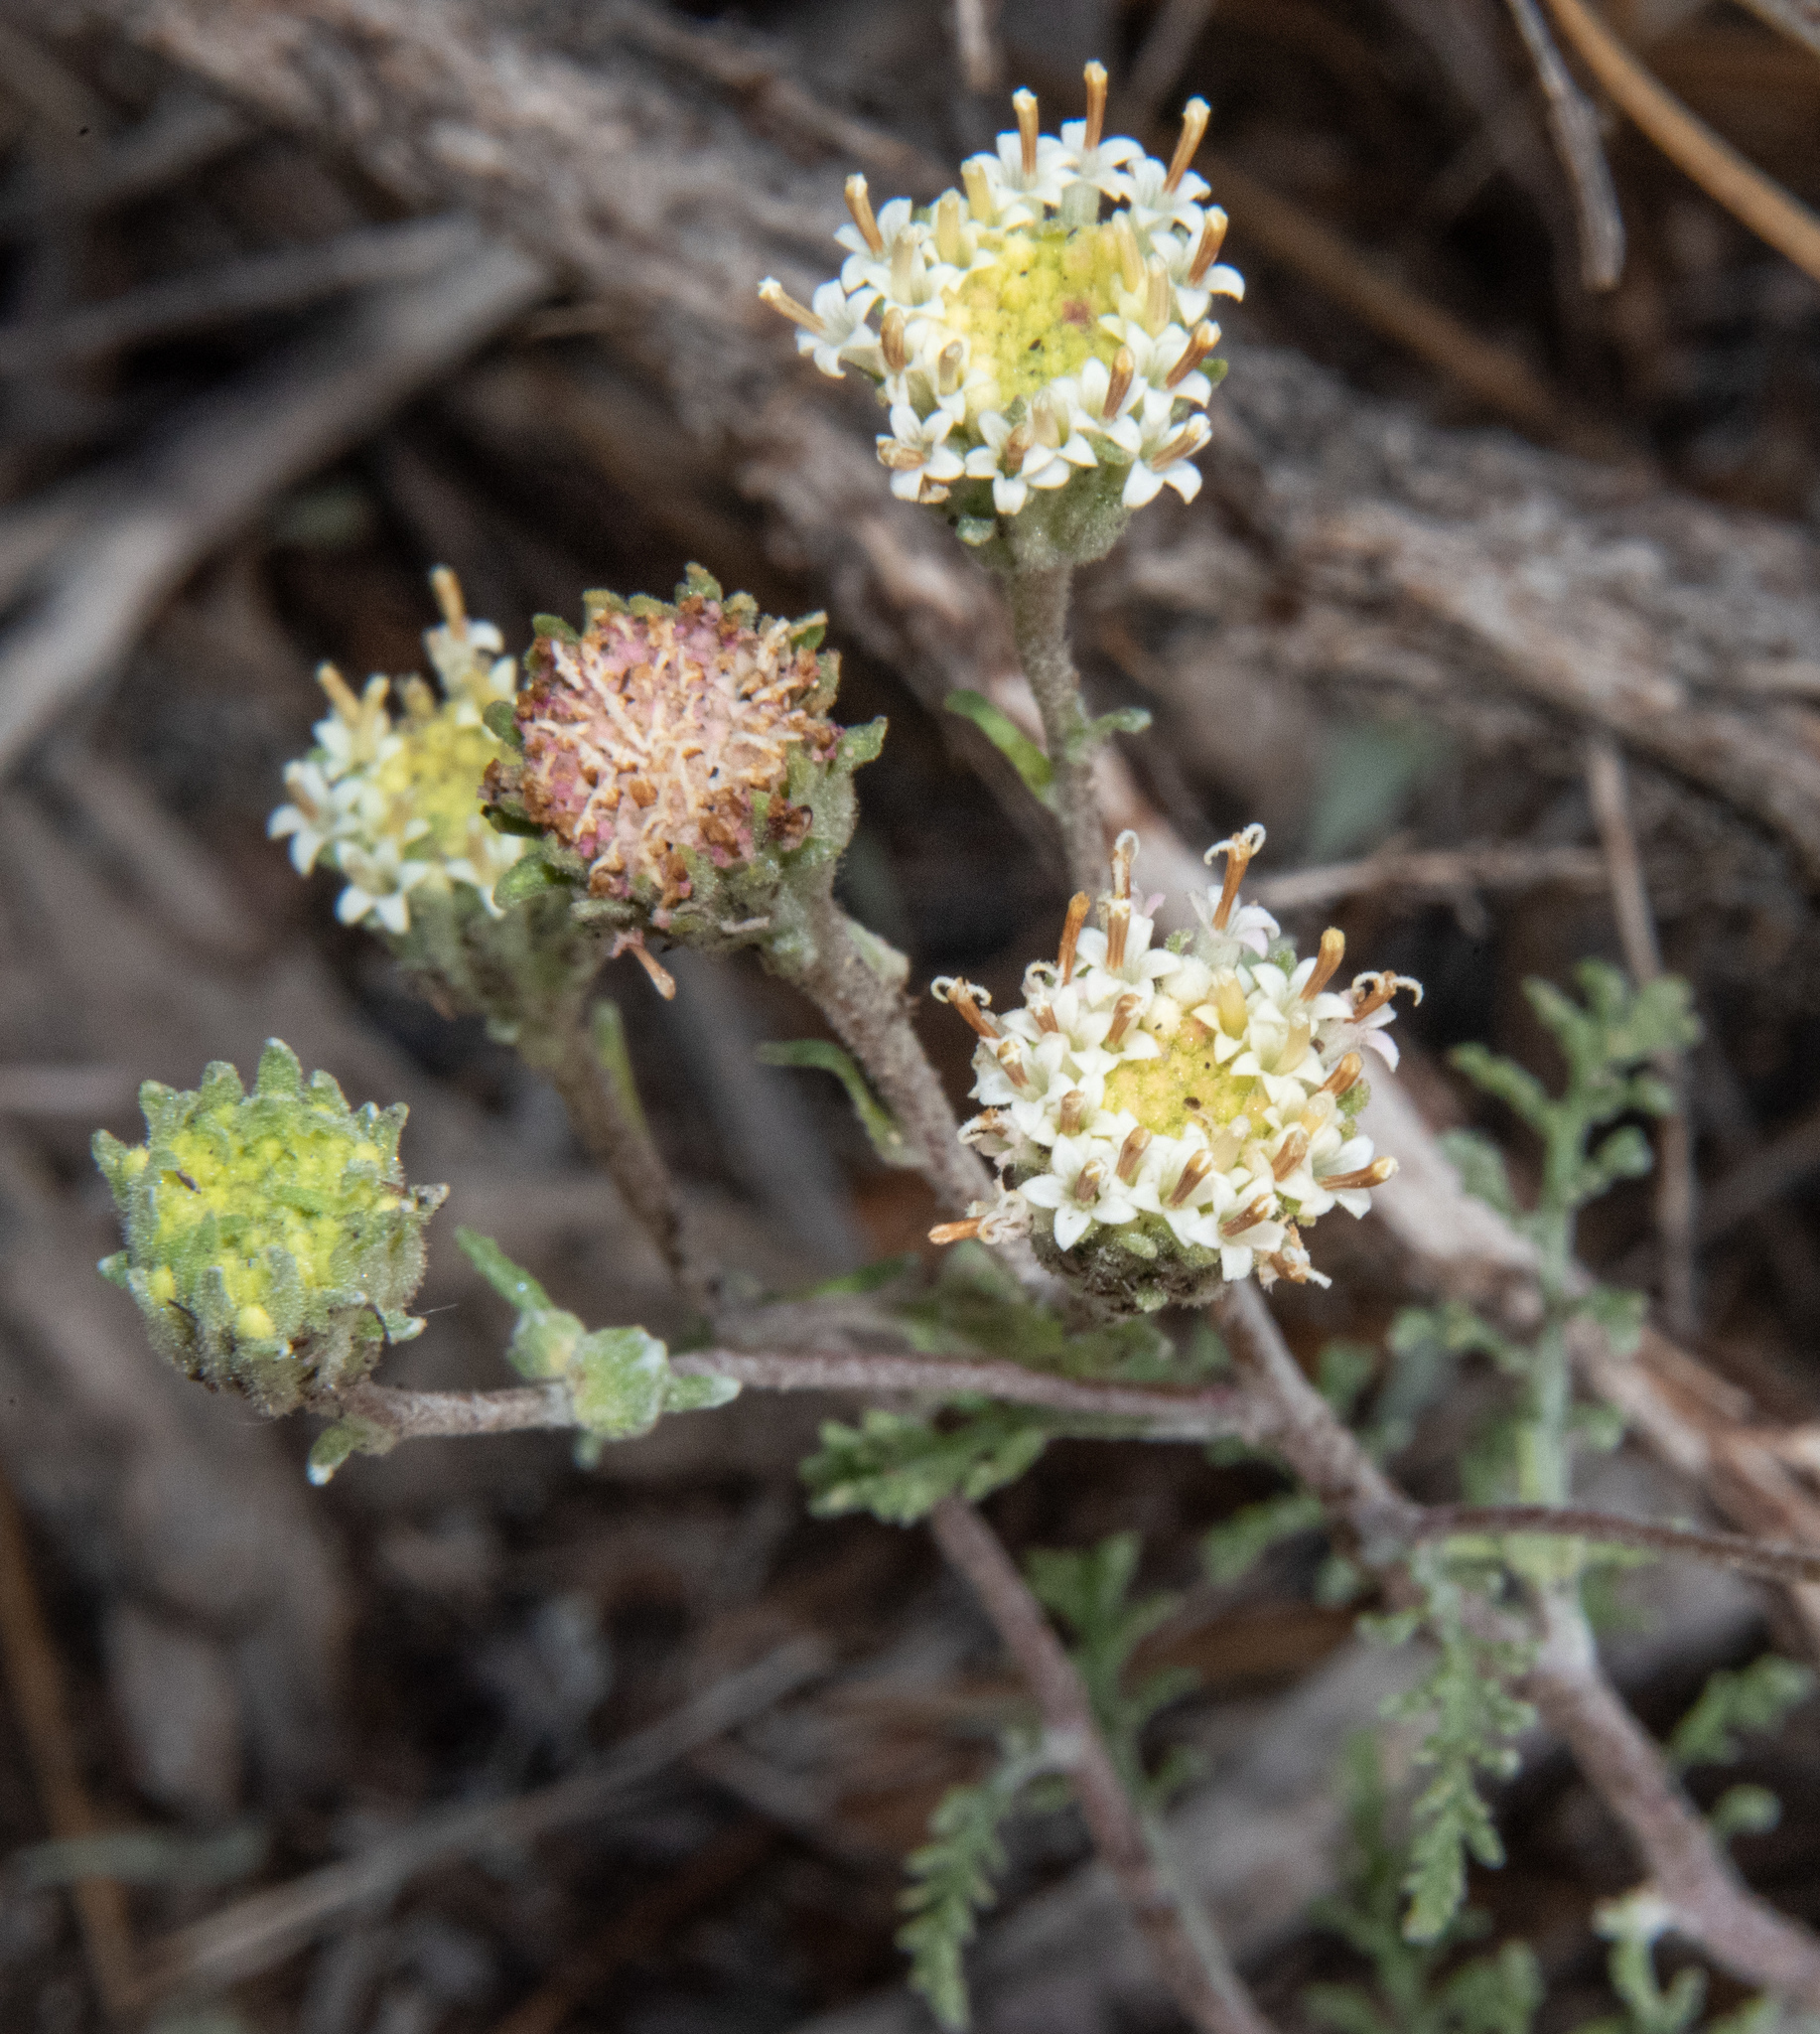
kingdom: Plantae
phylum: Tracheophyta
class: Magnoliopsida
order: Asterales
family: Asteraceae
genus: Chaenactis
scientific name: Chaenactis douglasii
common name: Hoary pincushion
